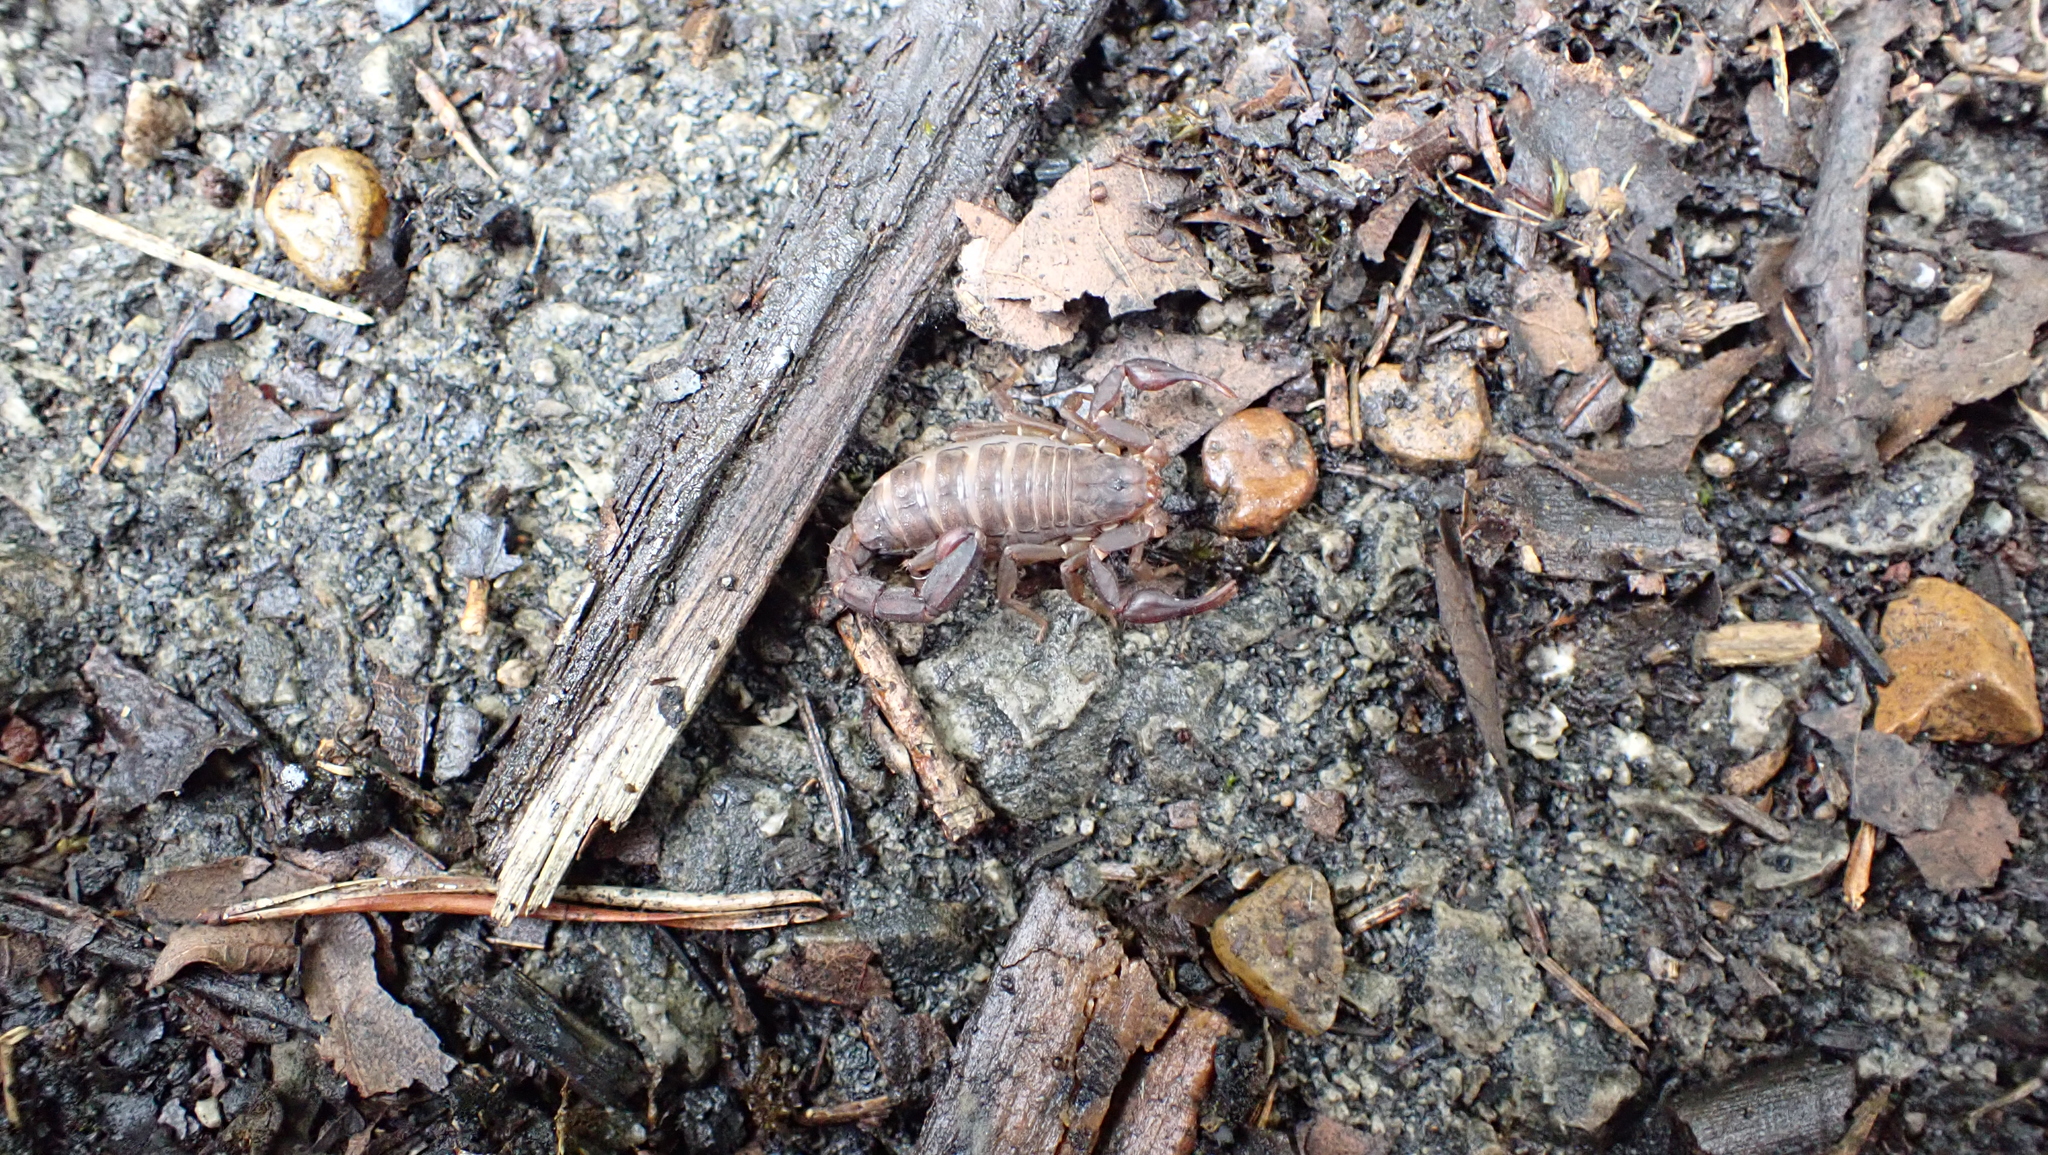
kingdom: Animalia
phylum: Arthropoda
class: Arachnida
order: Scorpiones
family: Vaejovidae
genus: Vaejovis
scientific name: Vaejovis carolinianus
